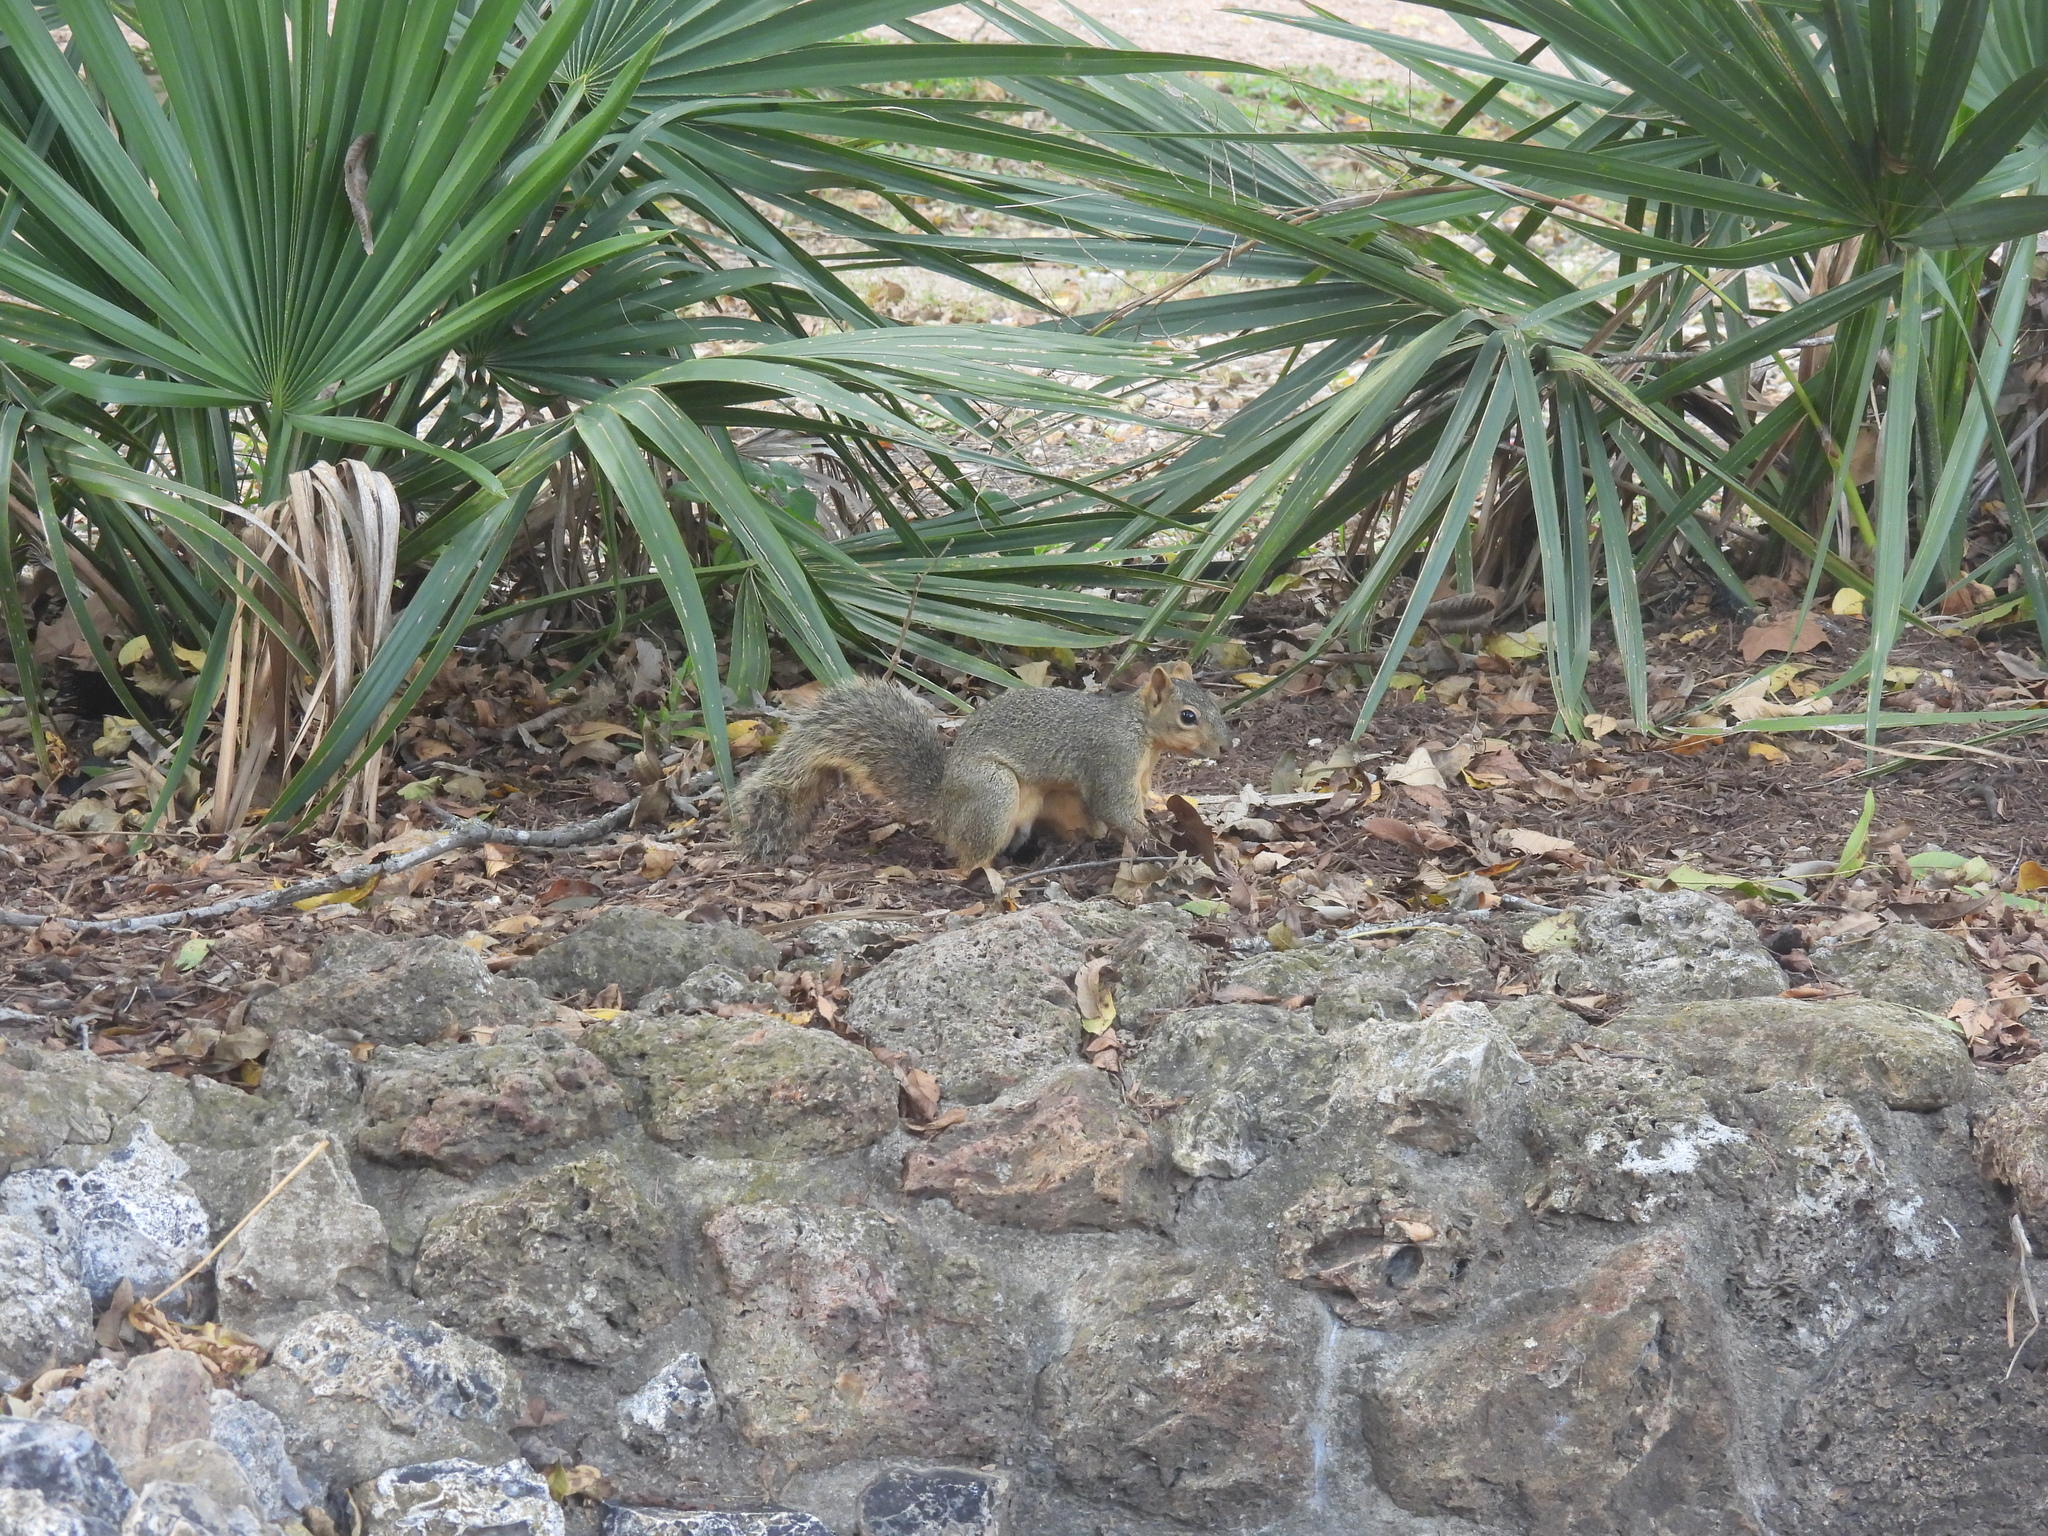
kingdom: Animalia
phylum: Chordata
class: Mammalia
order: Rodentia
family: Sciuridae
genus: Sciurus
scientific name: Sciurus niger
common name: Fox squirrel
